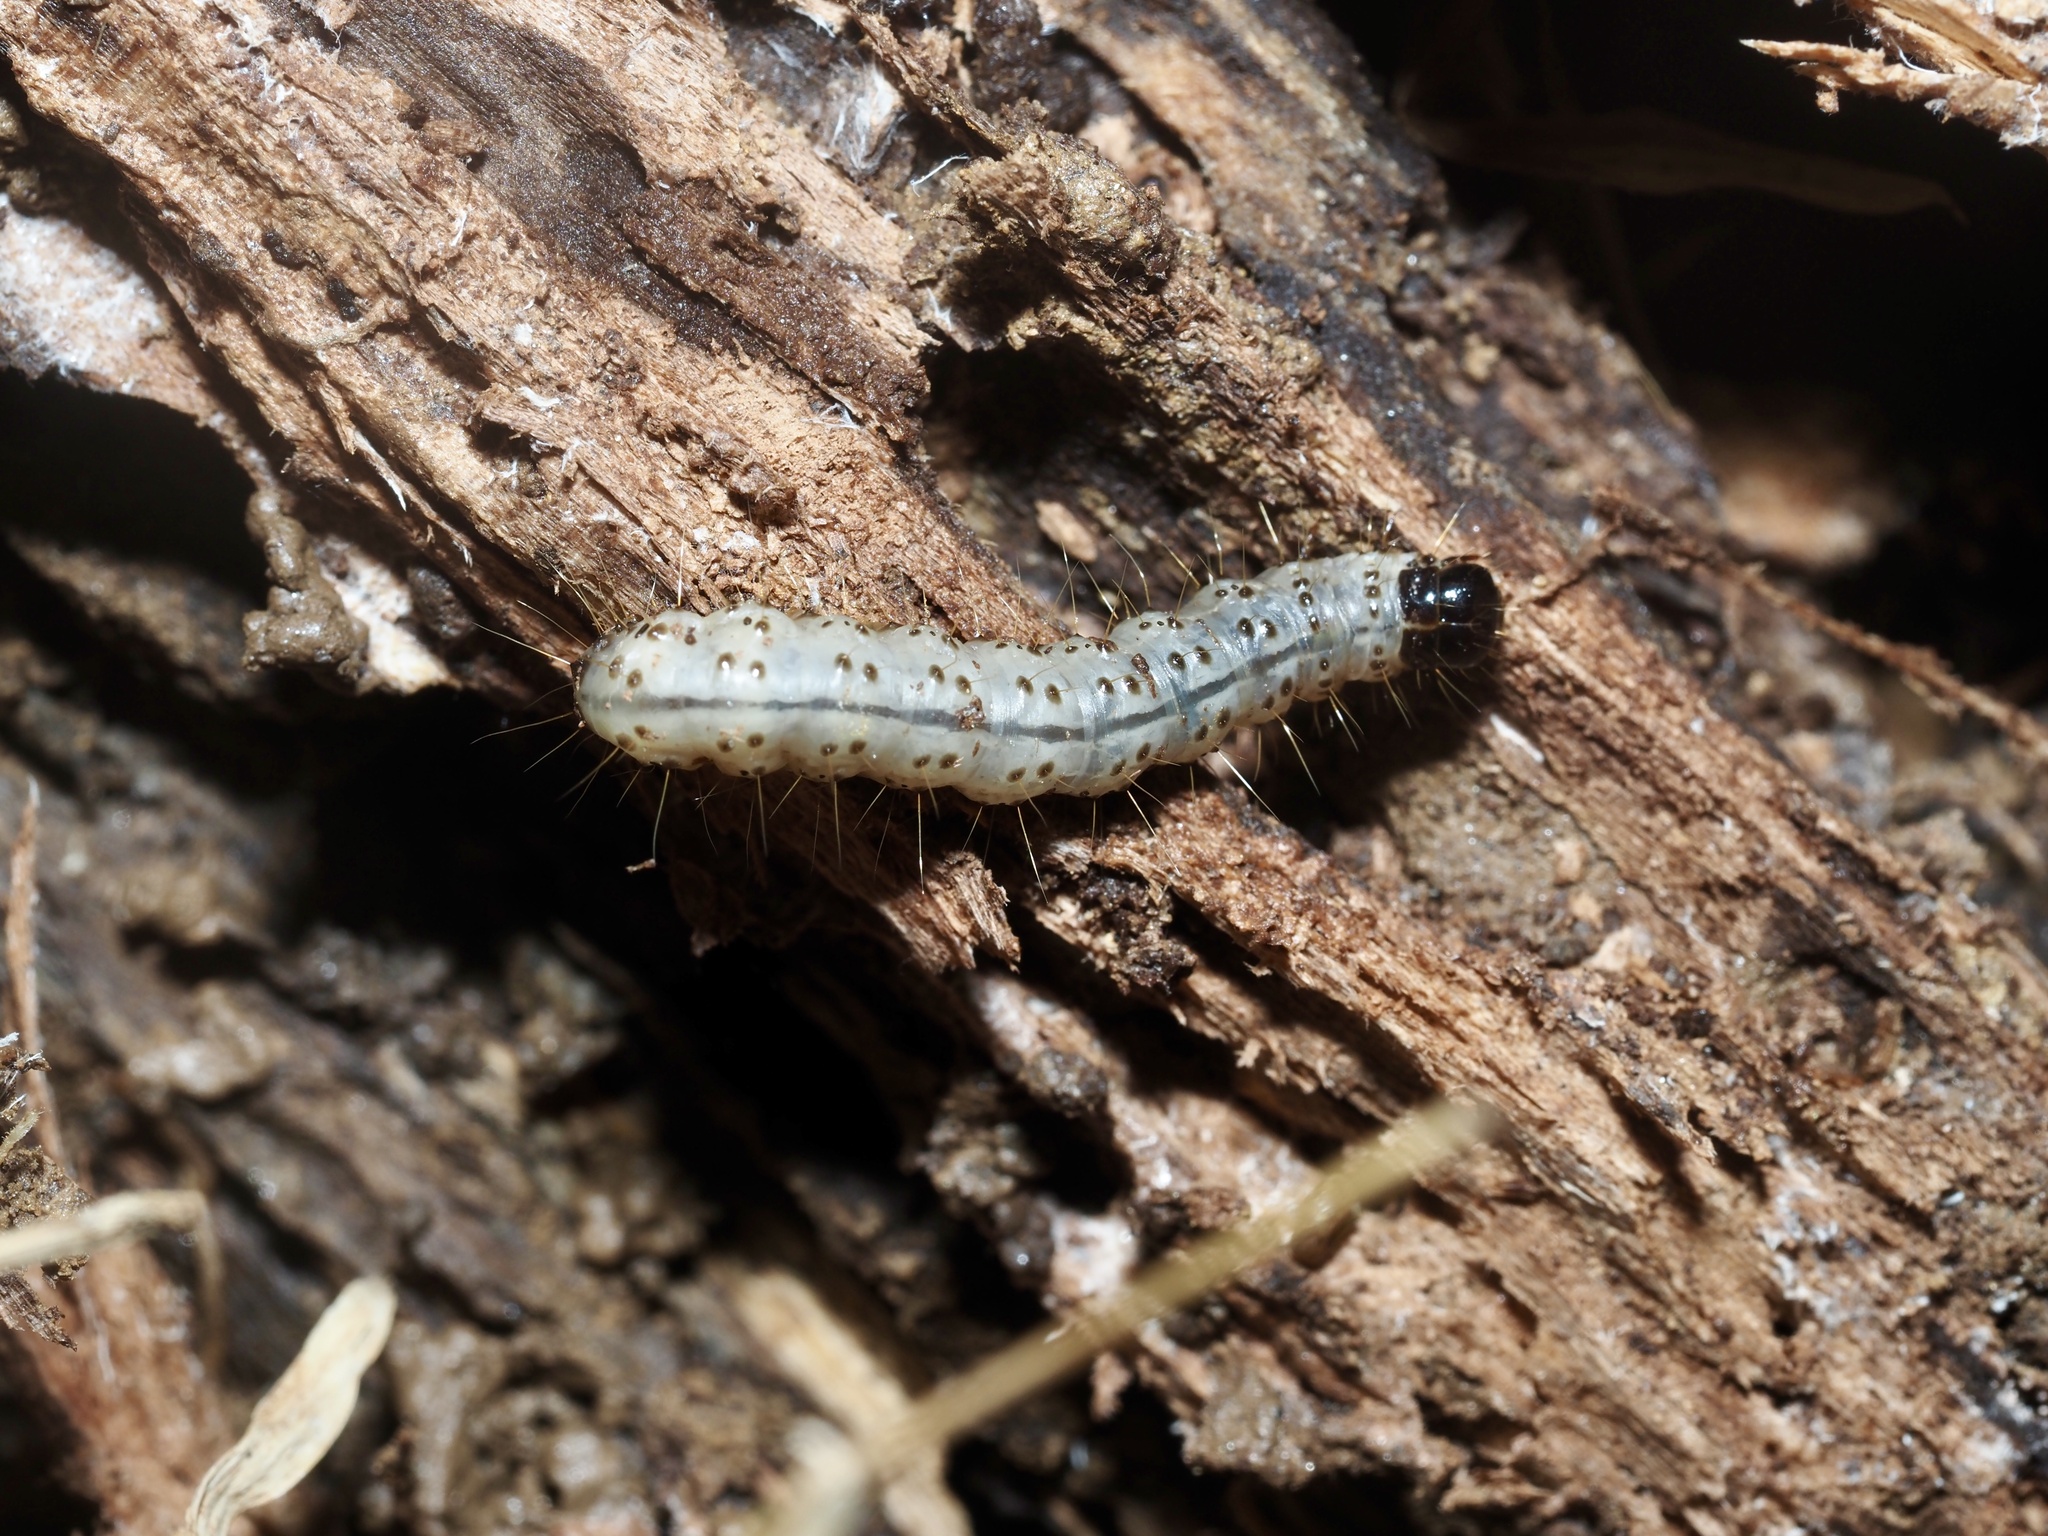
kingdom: Animalia
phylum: Arthropoda
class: Insecta
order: Lepidoptera
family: Erebidae
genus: Scolecocampa
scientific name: Scolecocampa liburna
